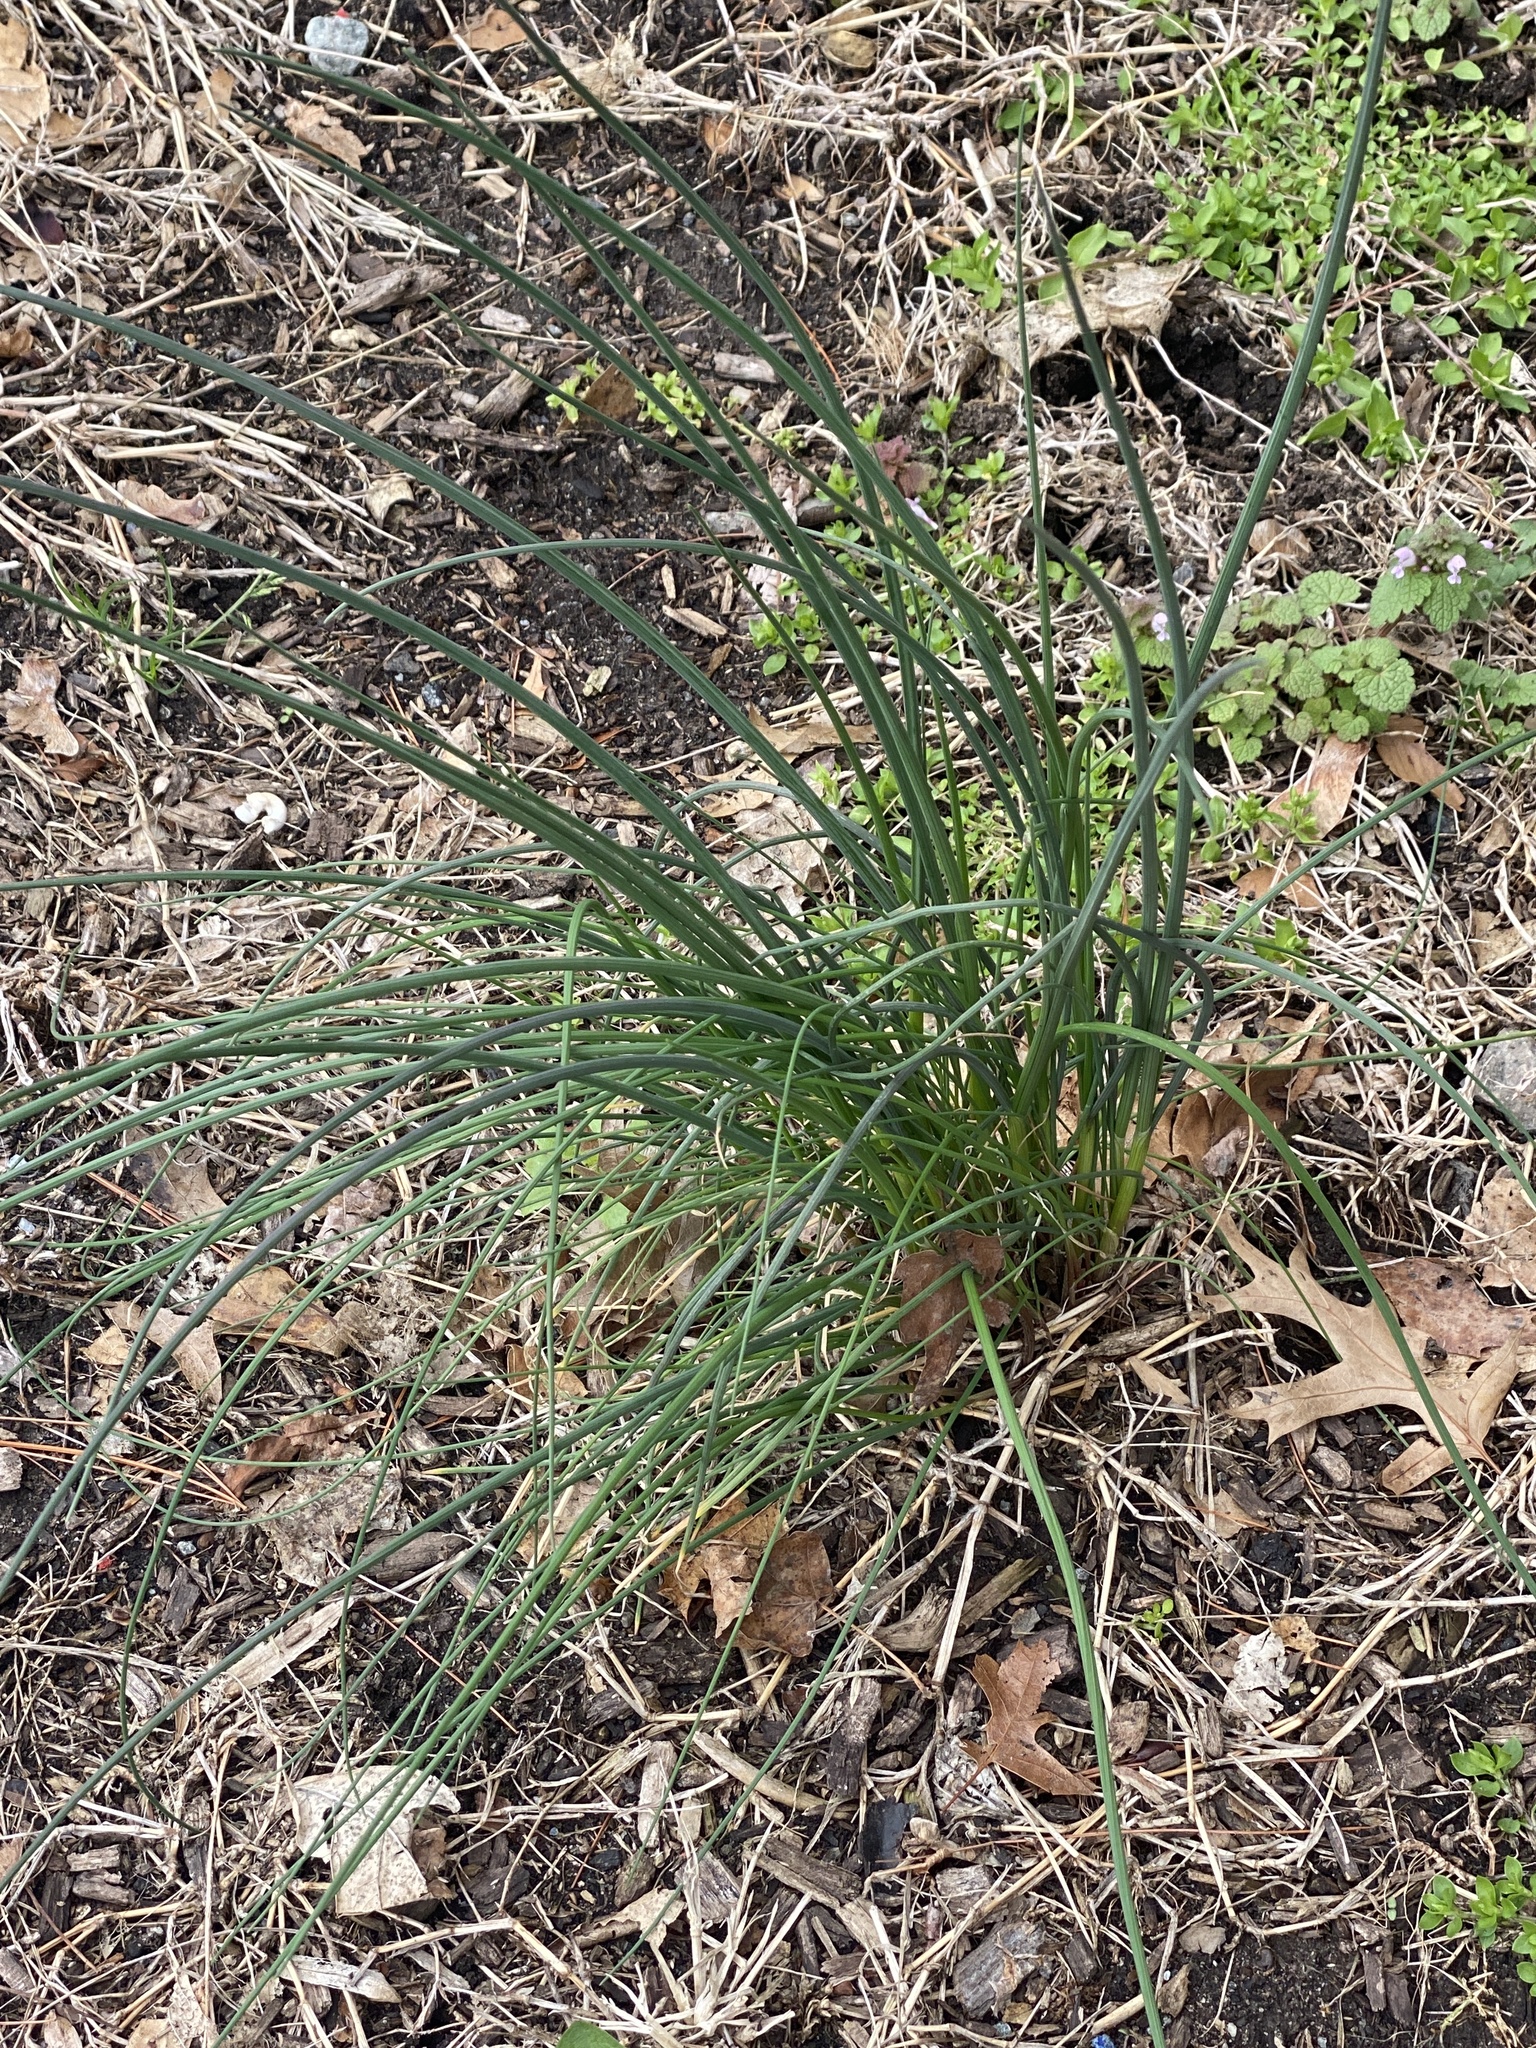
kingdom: Plantae
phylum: Tracheophyta
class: Liliopsida
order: Asparagales
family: Amaryllidaceae
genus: Allium
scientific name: Allium vineale
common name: Crow garlic
